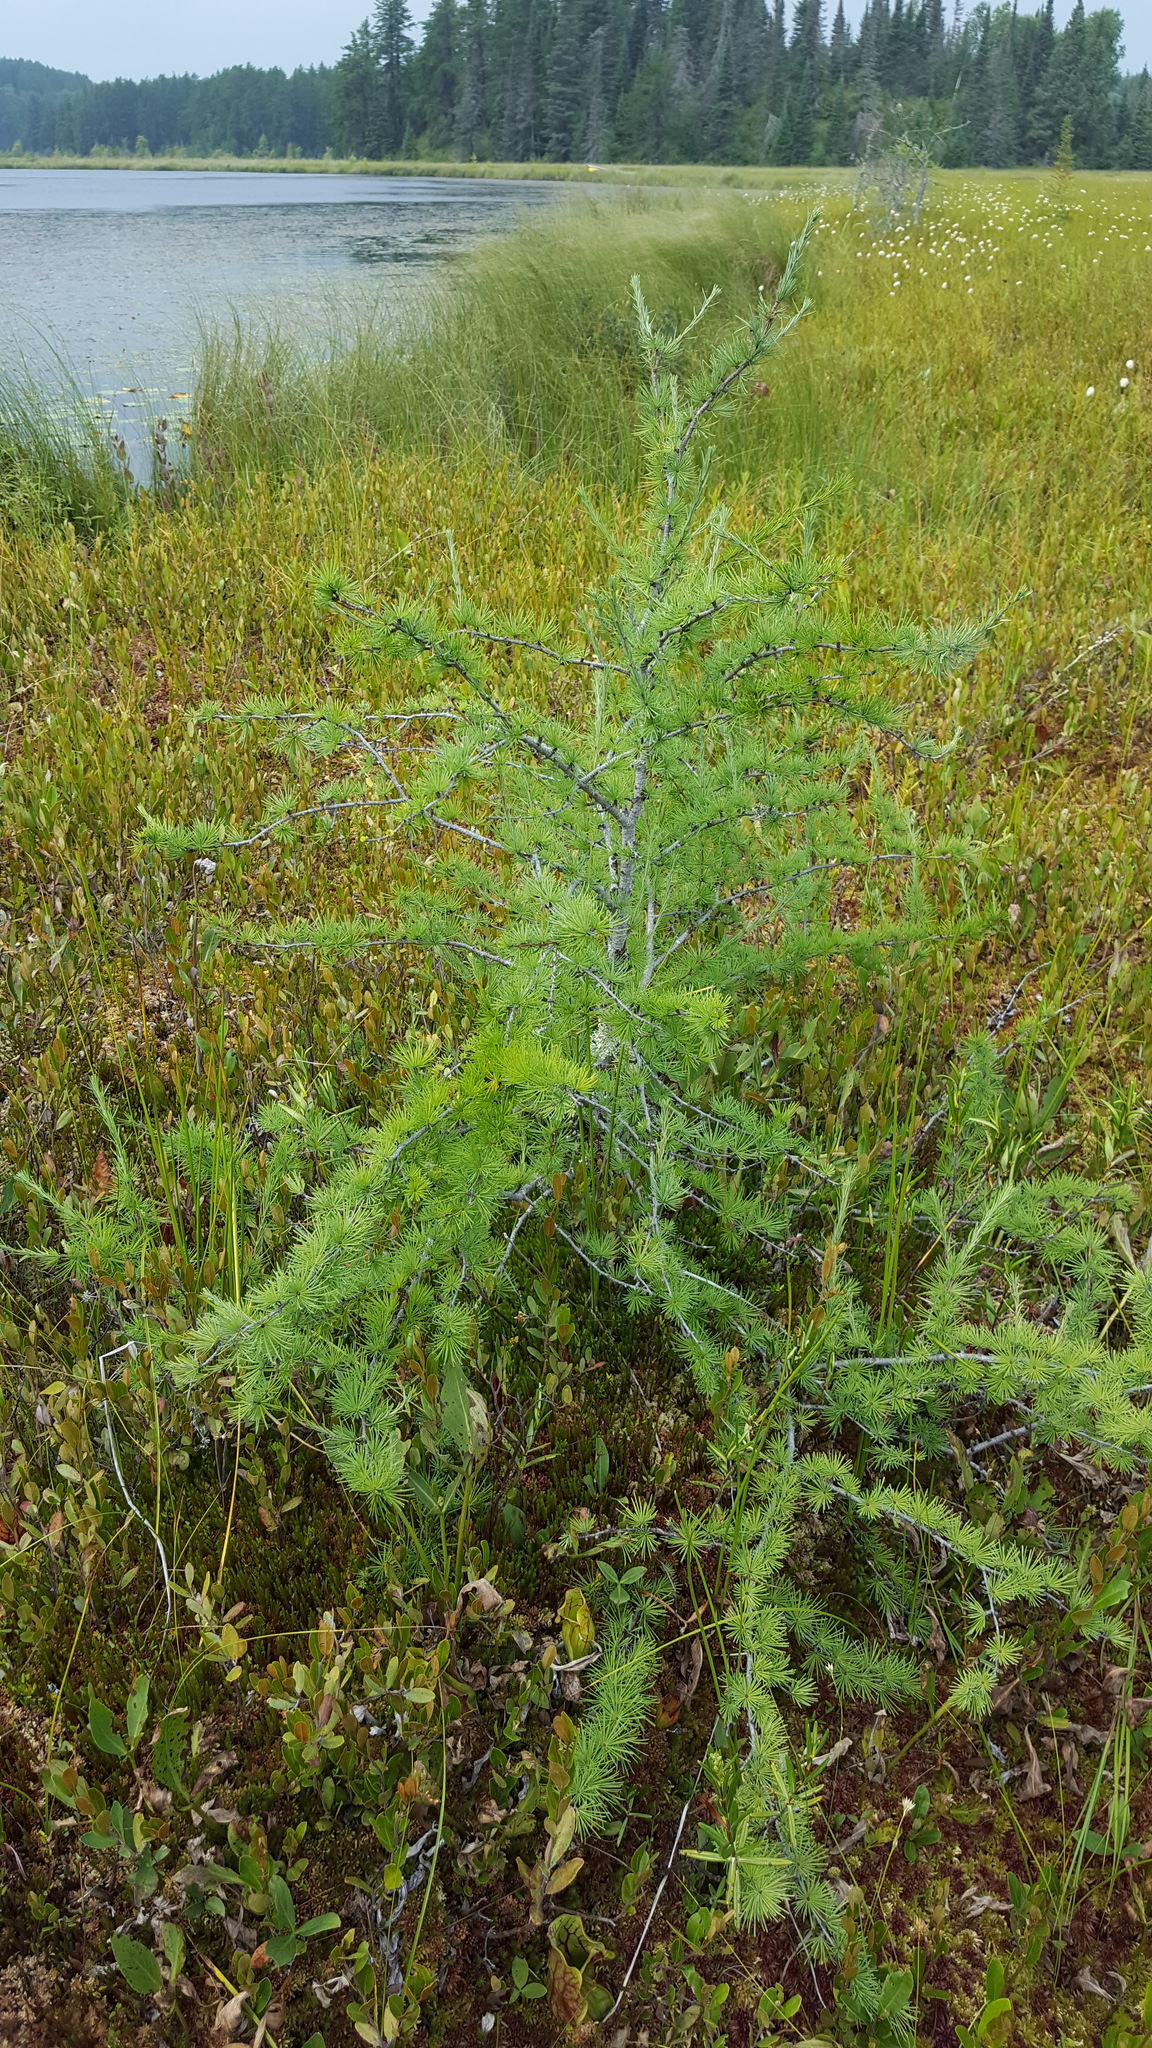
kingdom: Plantae
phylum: Tracheophyta
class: Pinopsida
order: Pinales
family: Pinaceae
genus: Larix
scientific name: Larix laricina
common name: American larch
